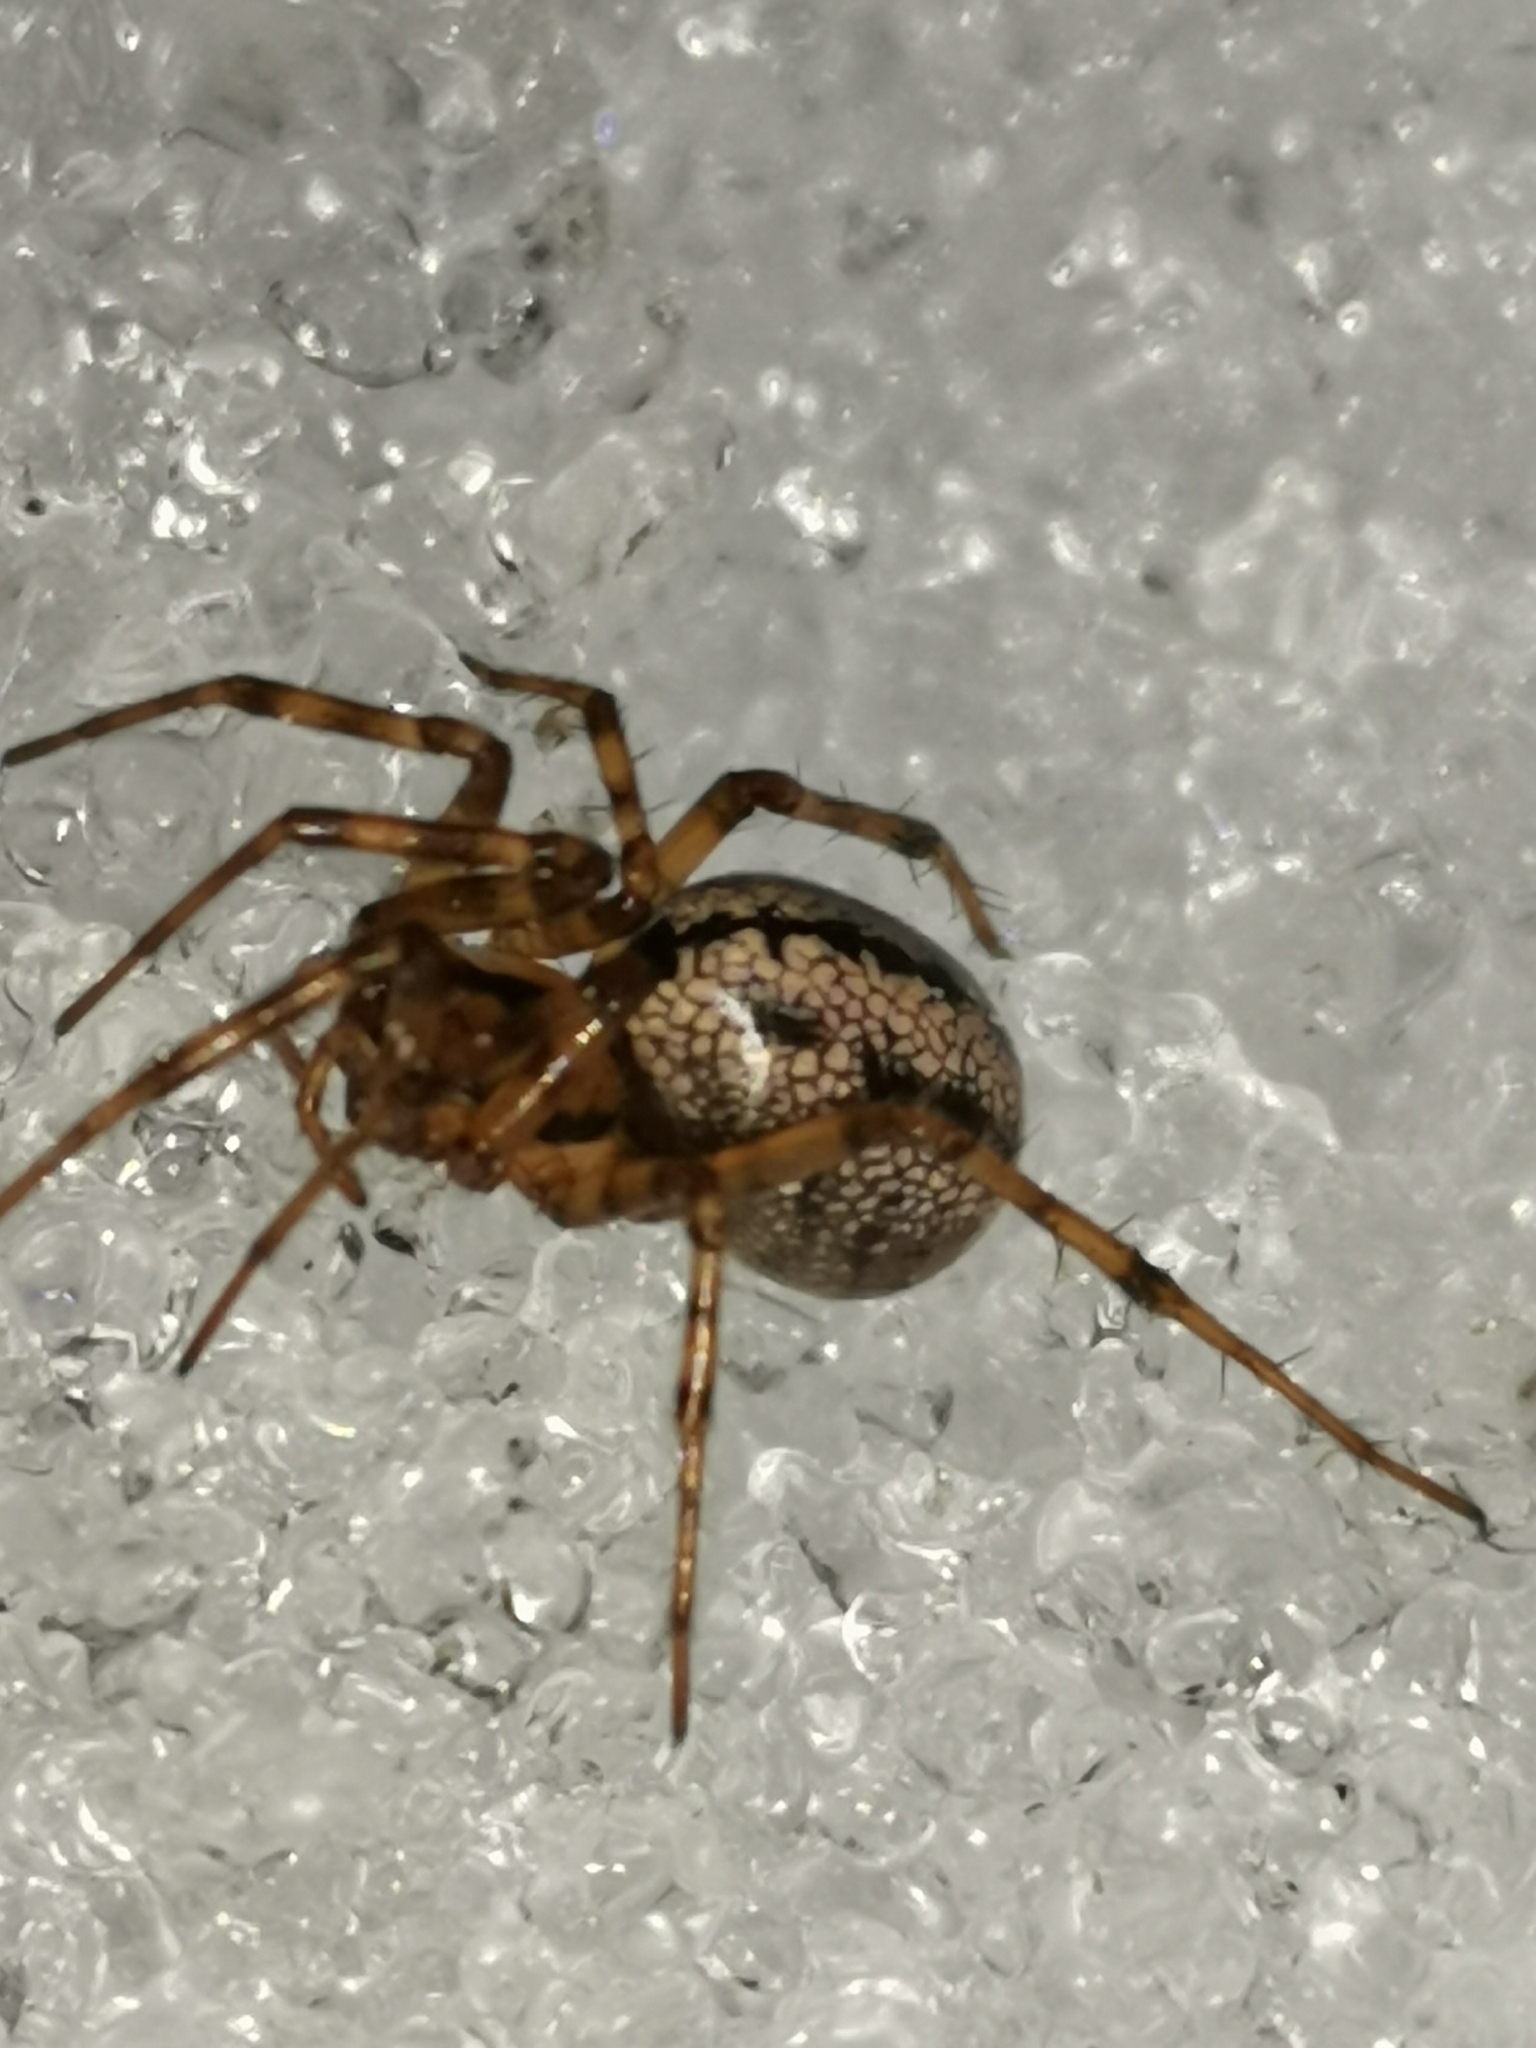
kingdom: Animalia
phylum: Arthropoda
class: Arachnida
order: Araneae
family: Linyphiidae
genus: Stemonyphantes
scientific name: Stemonyphantes lineatus
